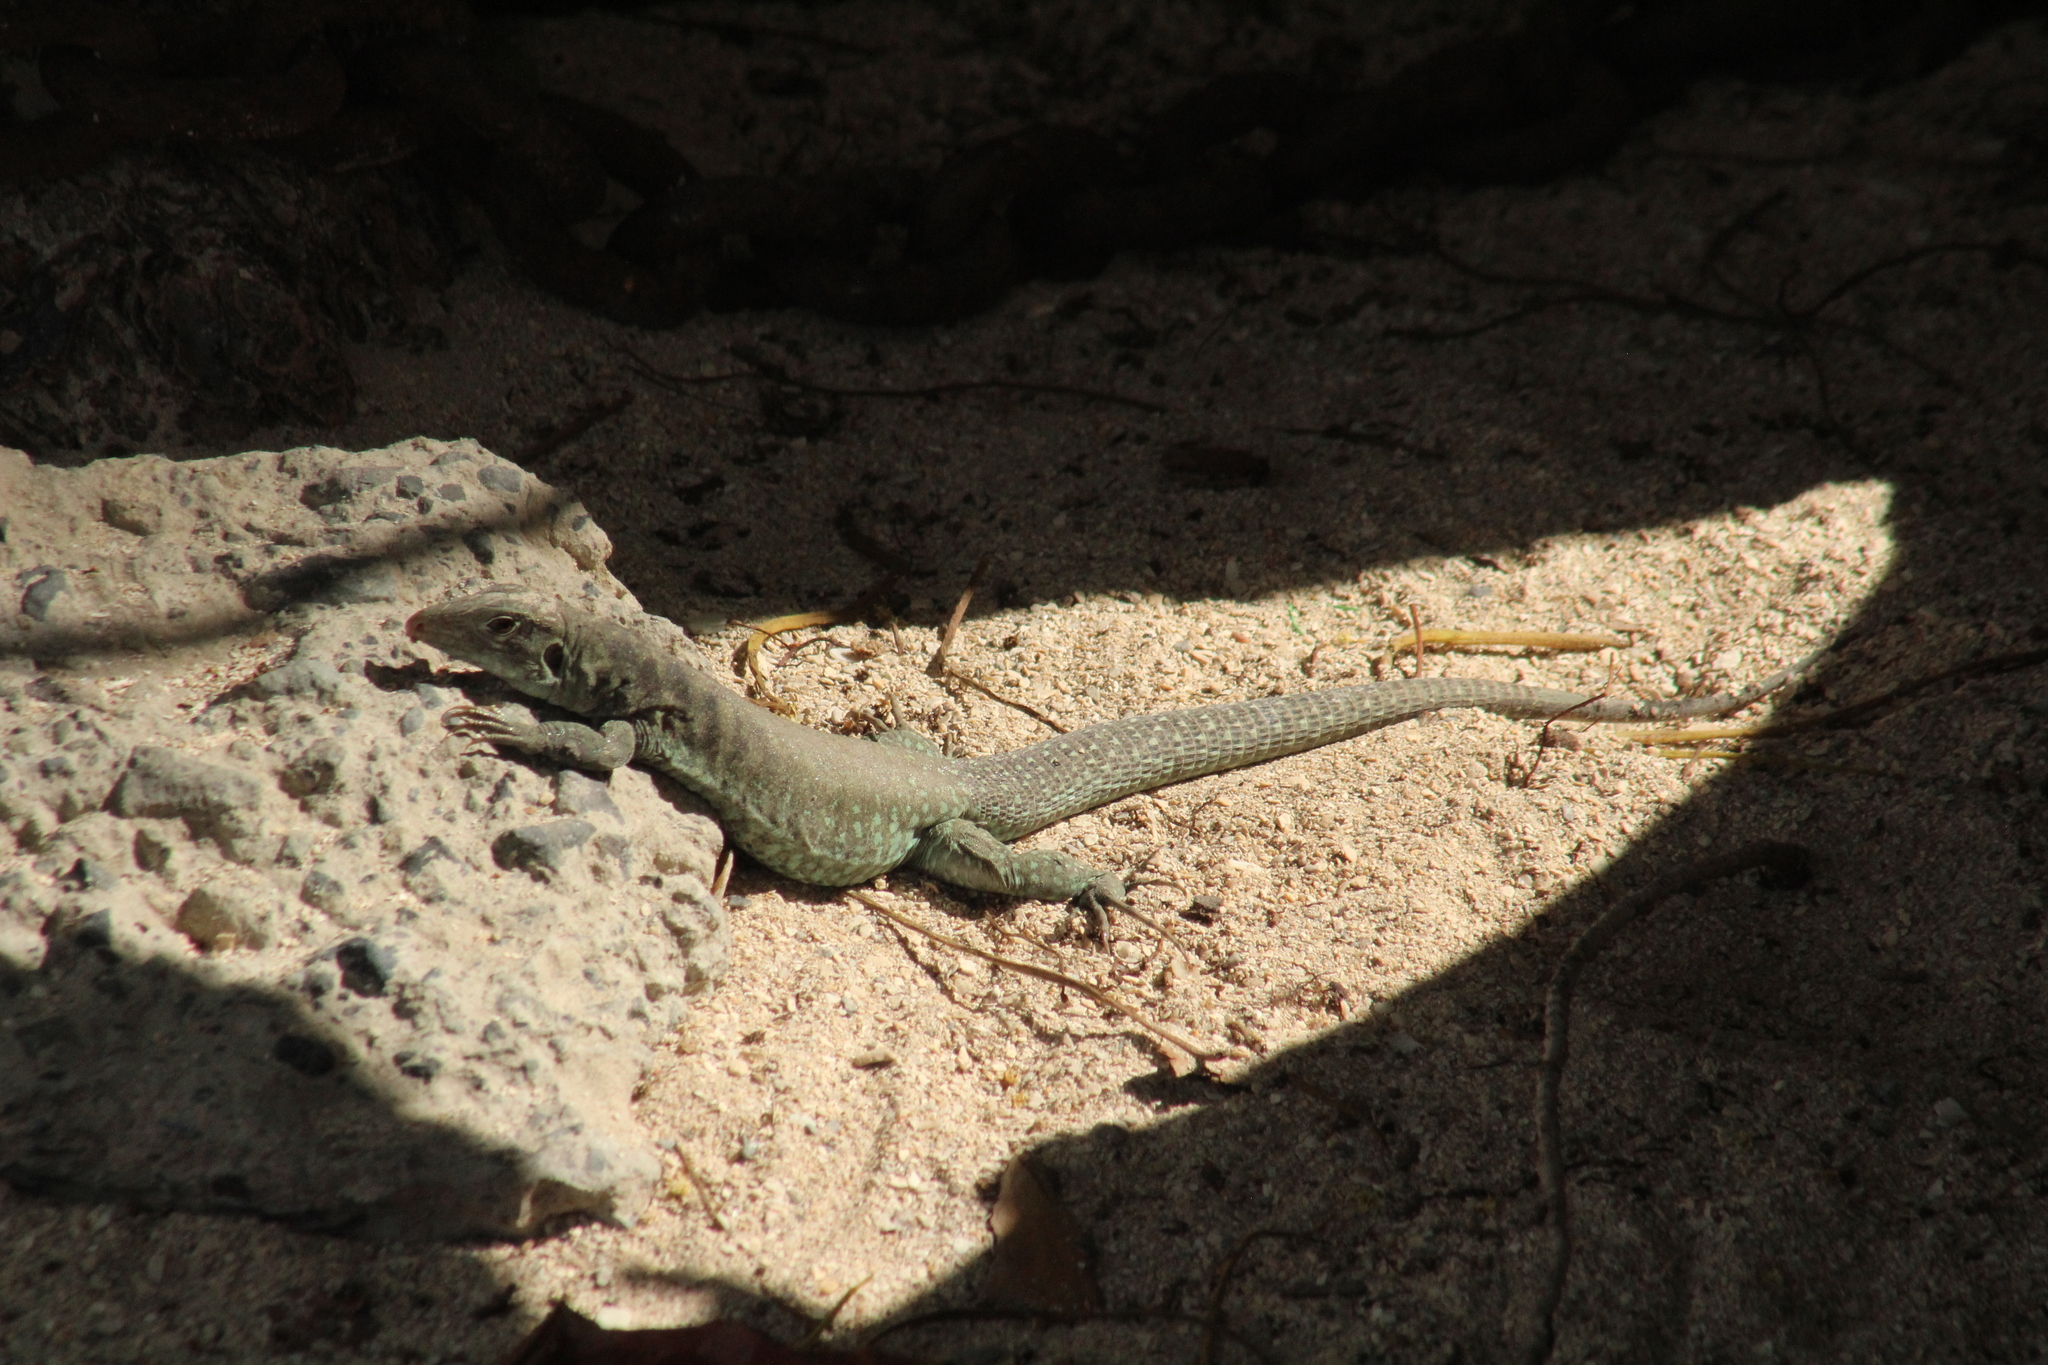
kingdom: Animalia
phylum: Chordata
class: Squamata
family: Teiidae
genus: Pholidoscelis
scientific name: Pholidoscelis plei
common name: Anguilla bank ameiva
